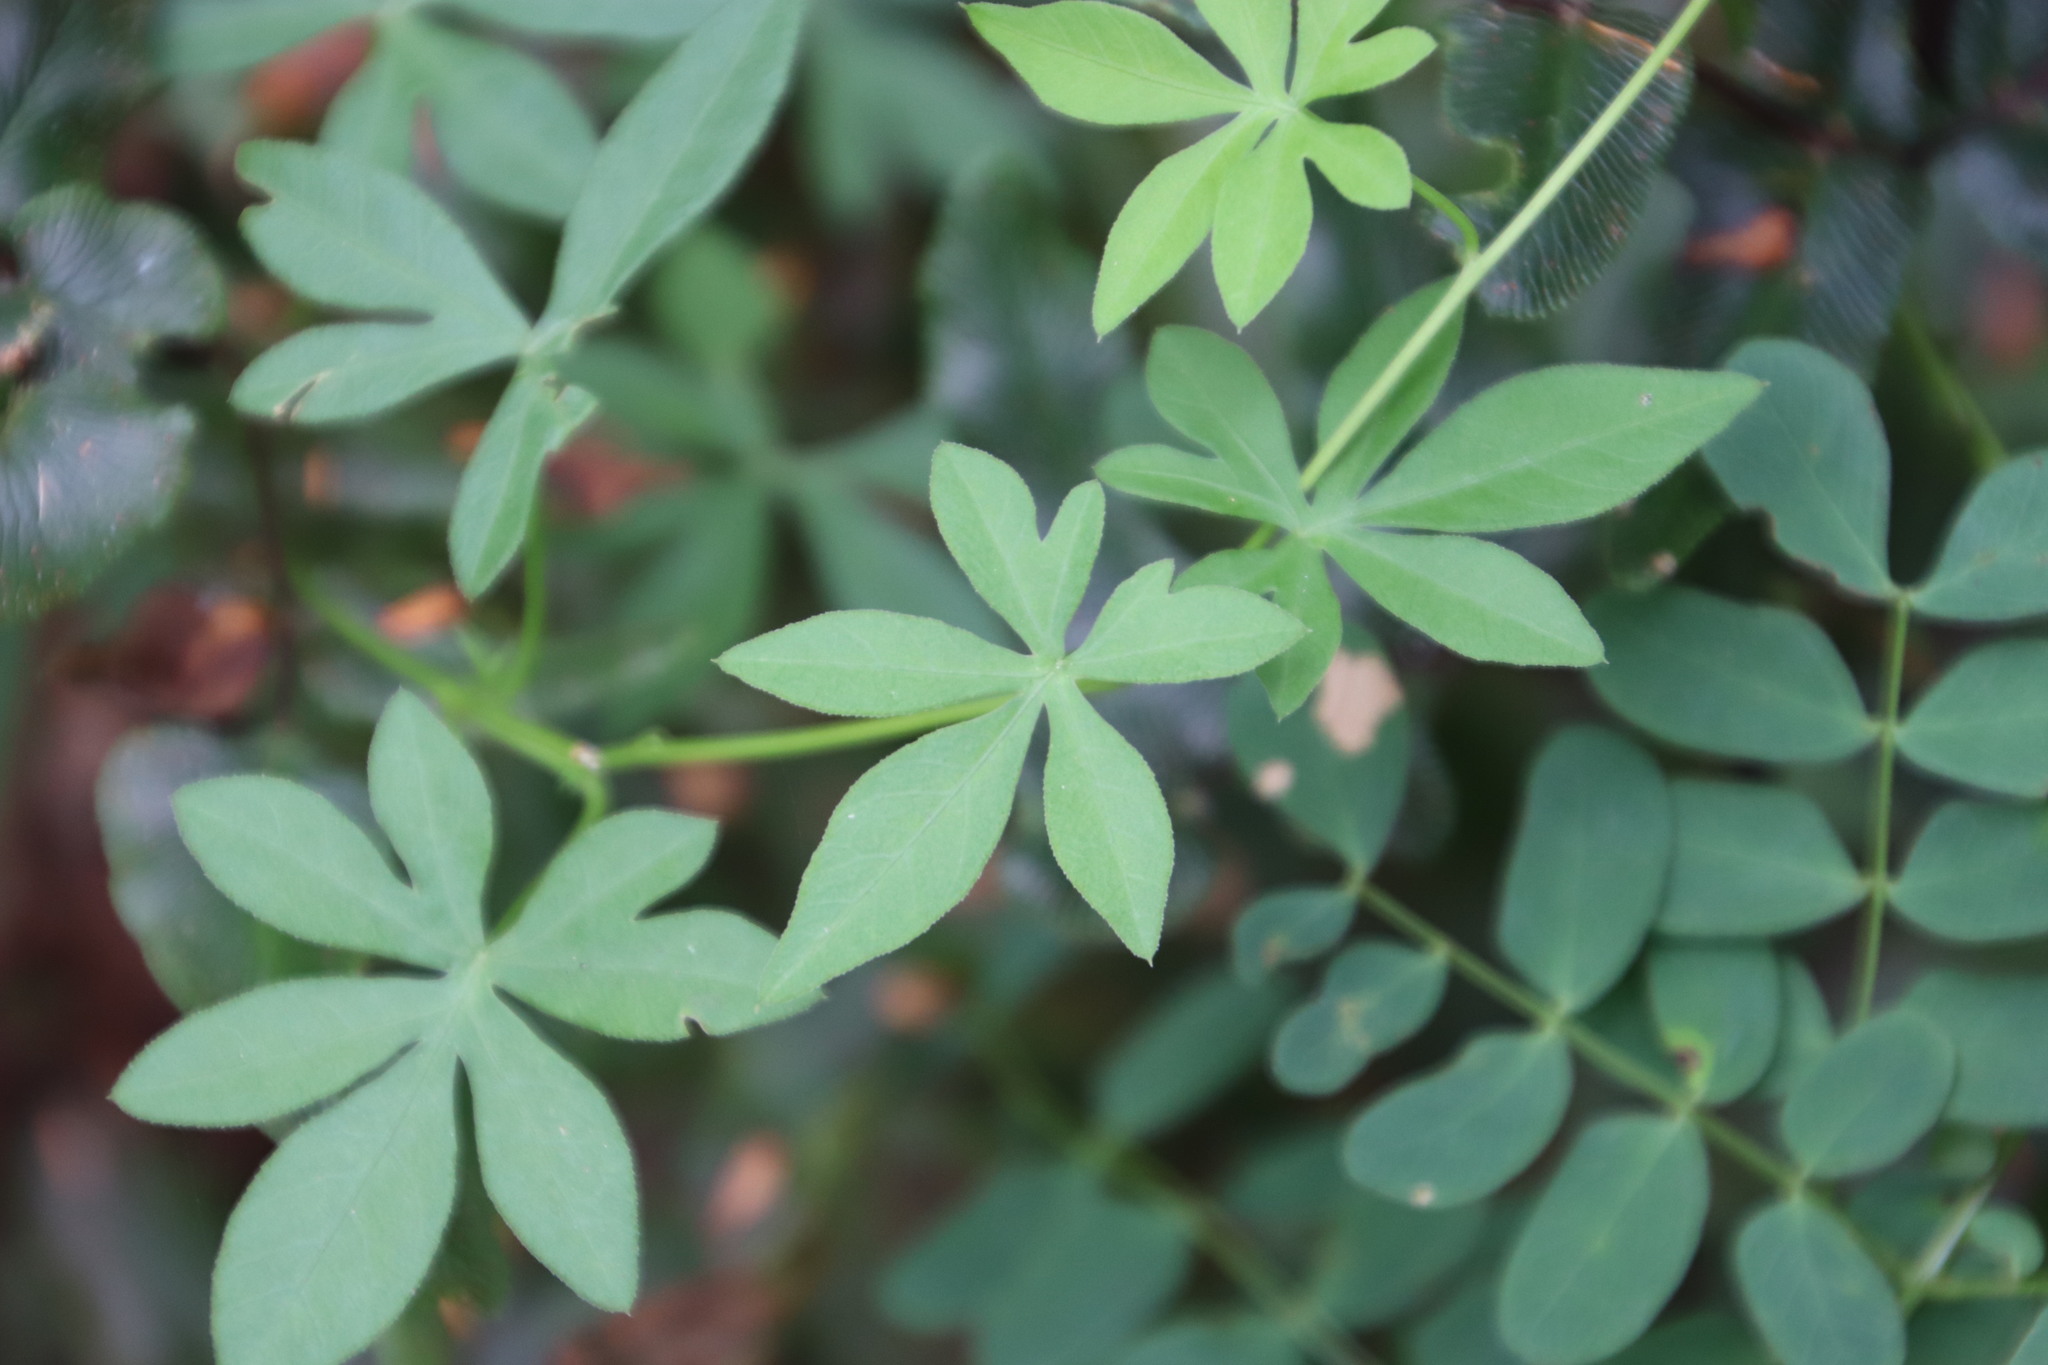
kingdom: Plantae
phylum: Tracheophyta
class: Magnoliopsida
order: Solanales
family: Convolvulaceae
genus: Ipomoea
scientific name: Ipomoea cairica
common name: Mile a minute vine
